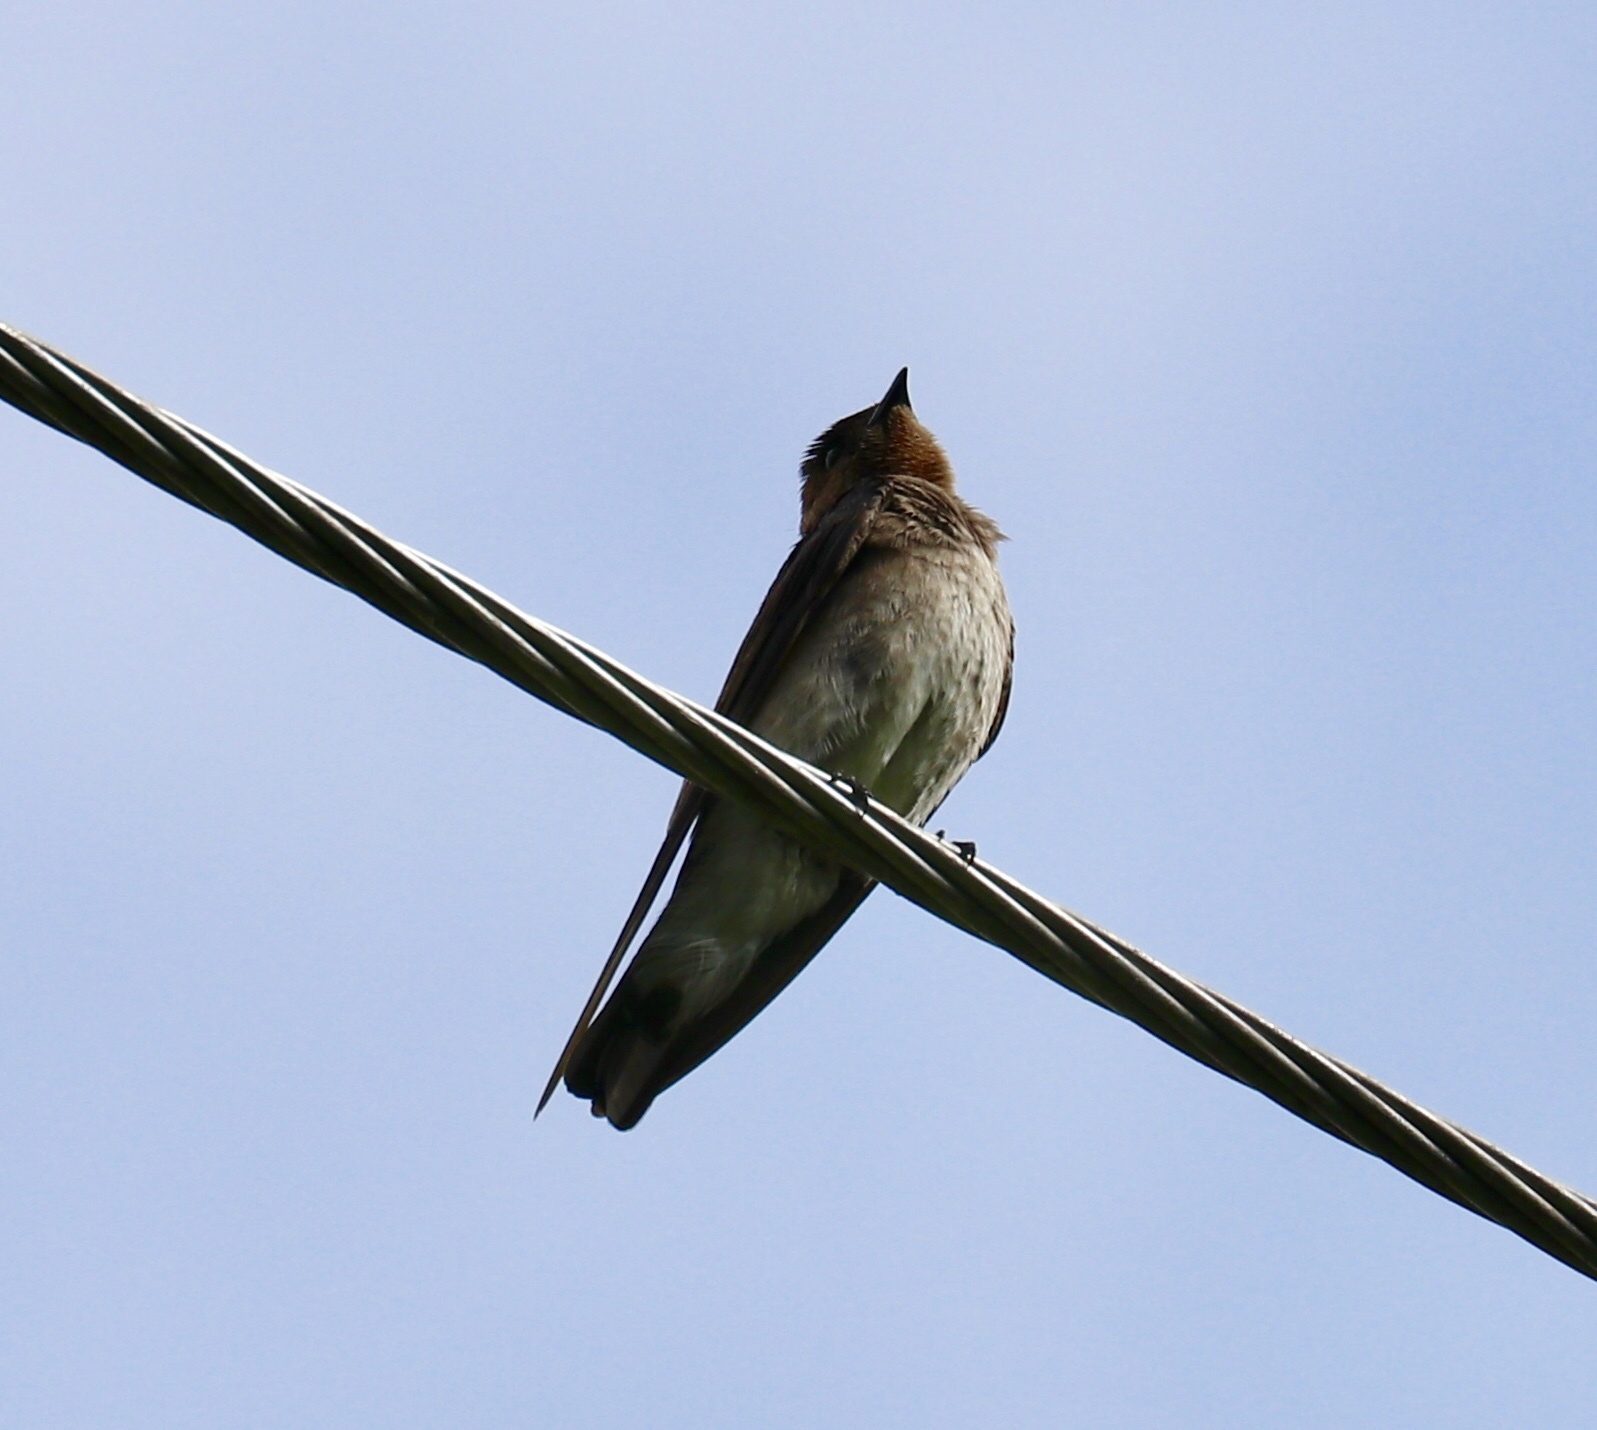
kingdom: Animalia
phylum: Chordata
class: Aves
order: Passeriformes
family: Hirundinidae
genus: Stelgidopteryx
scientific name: Stelgidopteryx ruficollis
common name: Southern rough-winged swallow
